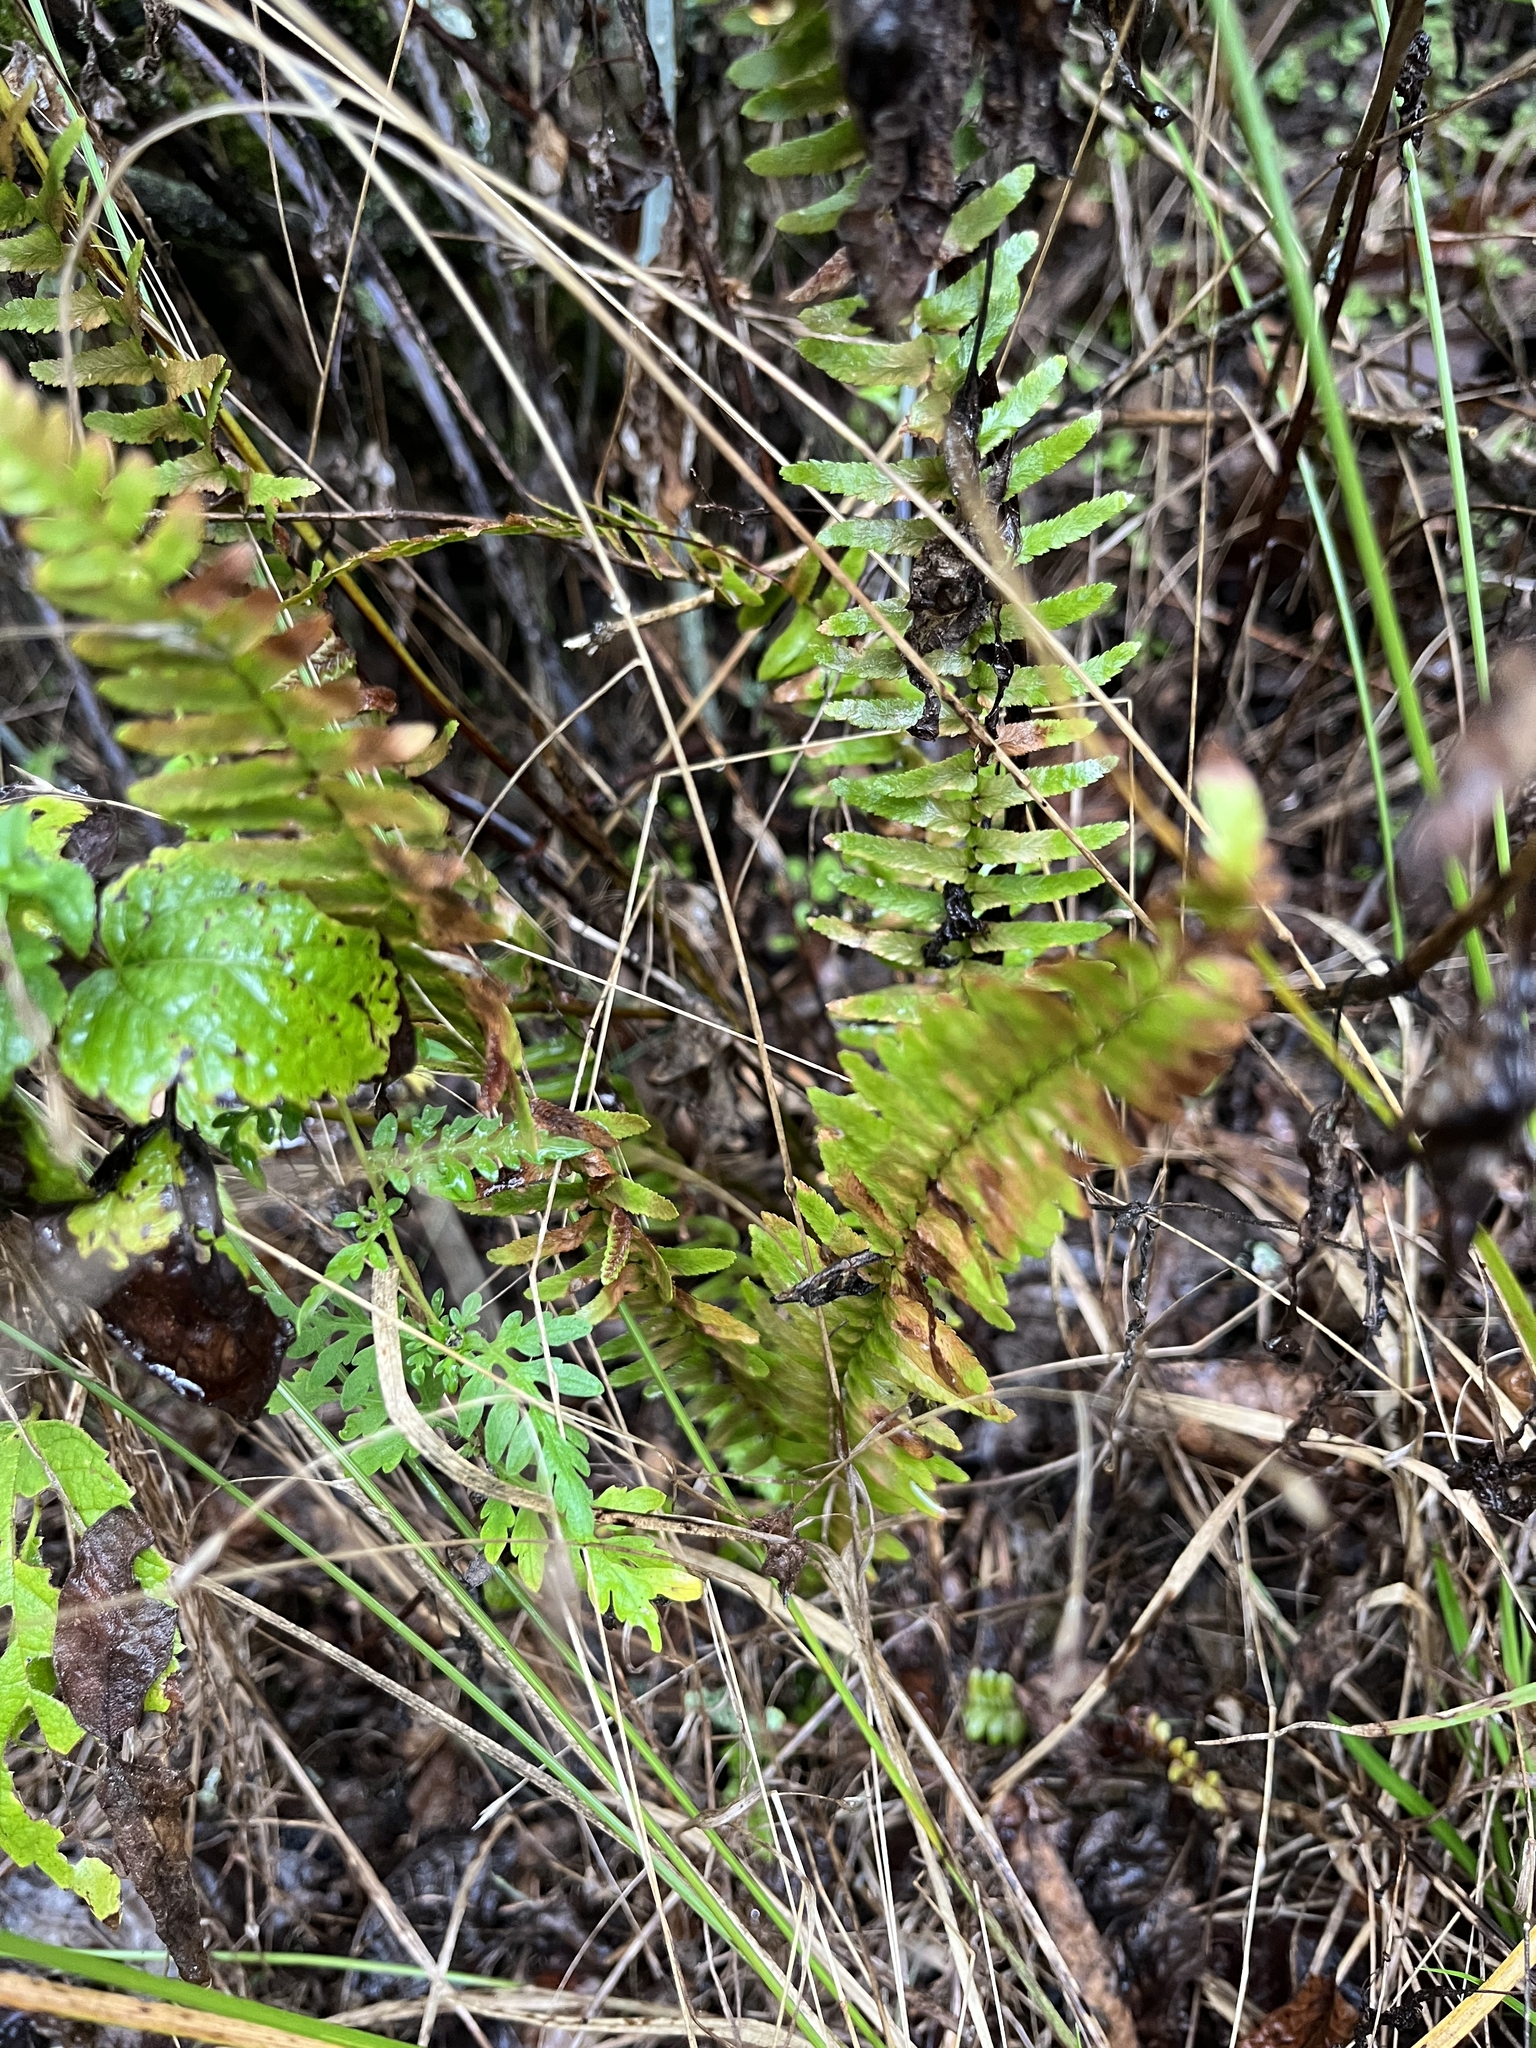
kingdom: Plantae
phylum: Tracheophyta
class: Polypodiopsida
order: Polypodiales
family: Aspleniaceae
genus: Asplenium
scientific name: Asplenium platyneuron
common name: Ebony spleenwort
